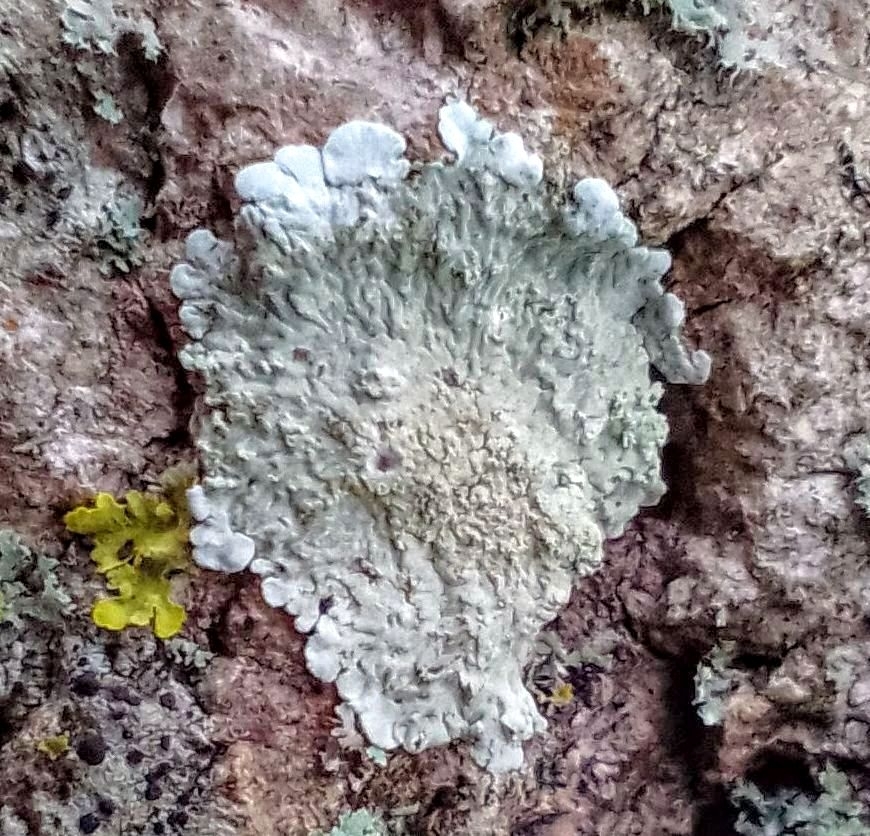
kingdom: Fungi
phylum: Ascomycota
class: Lecanoromycetes
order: Caliciales
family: Caliciaceae
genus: Diploicia
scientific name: Diploicia canescens
